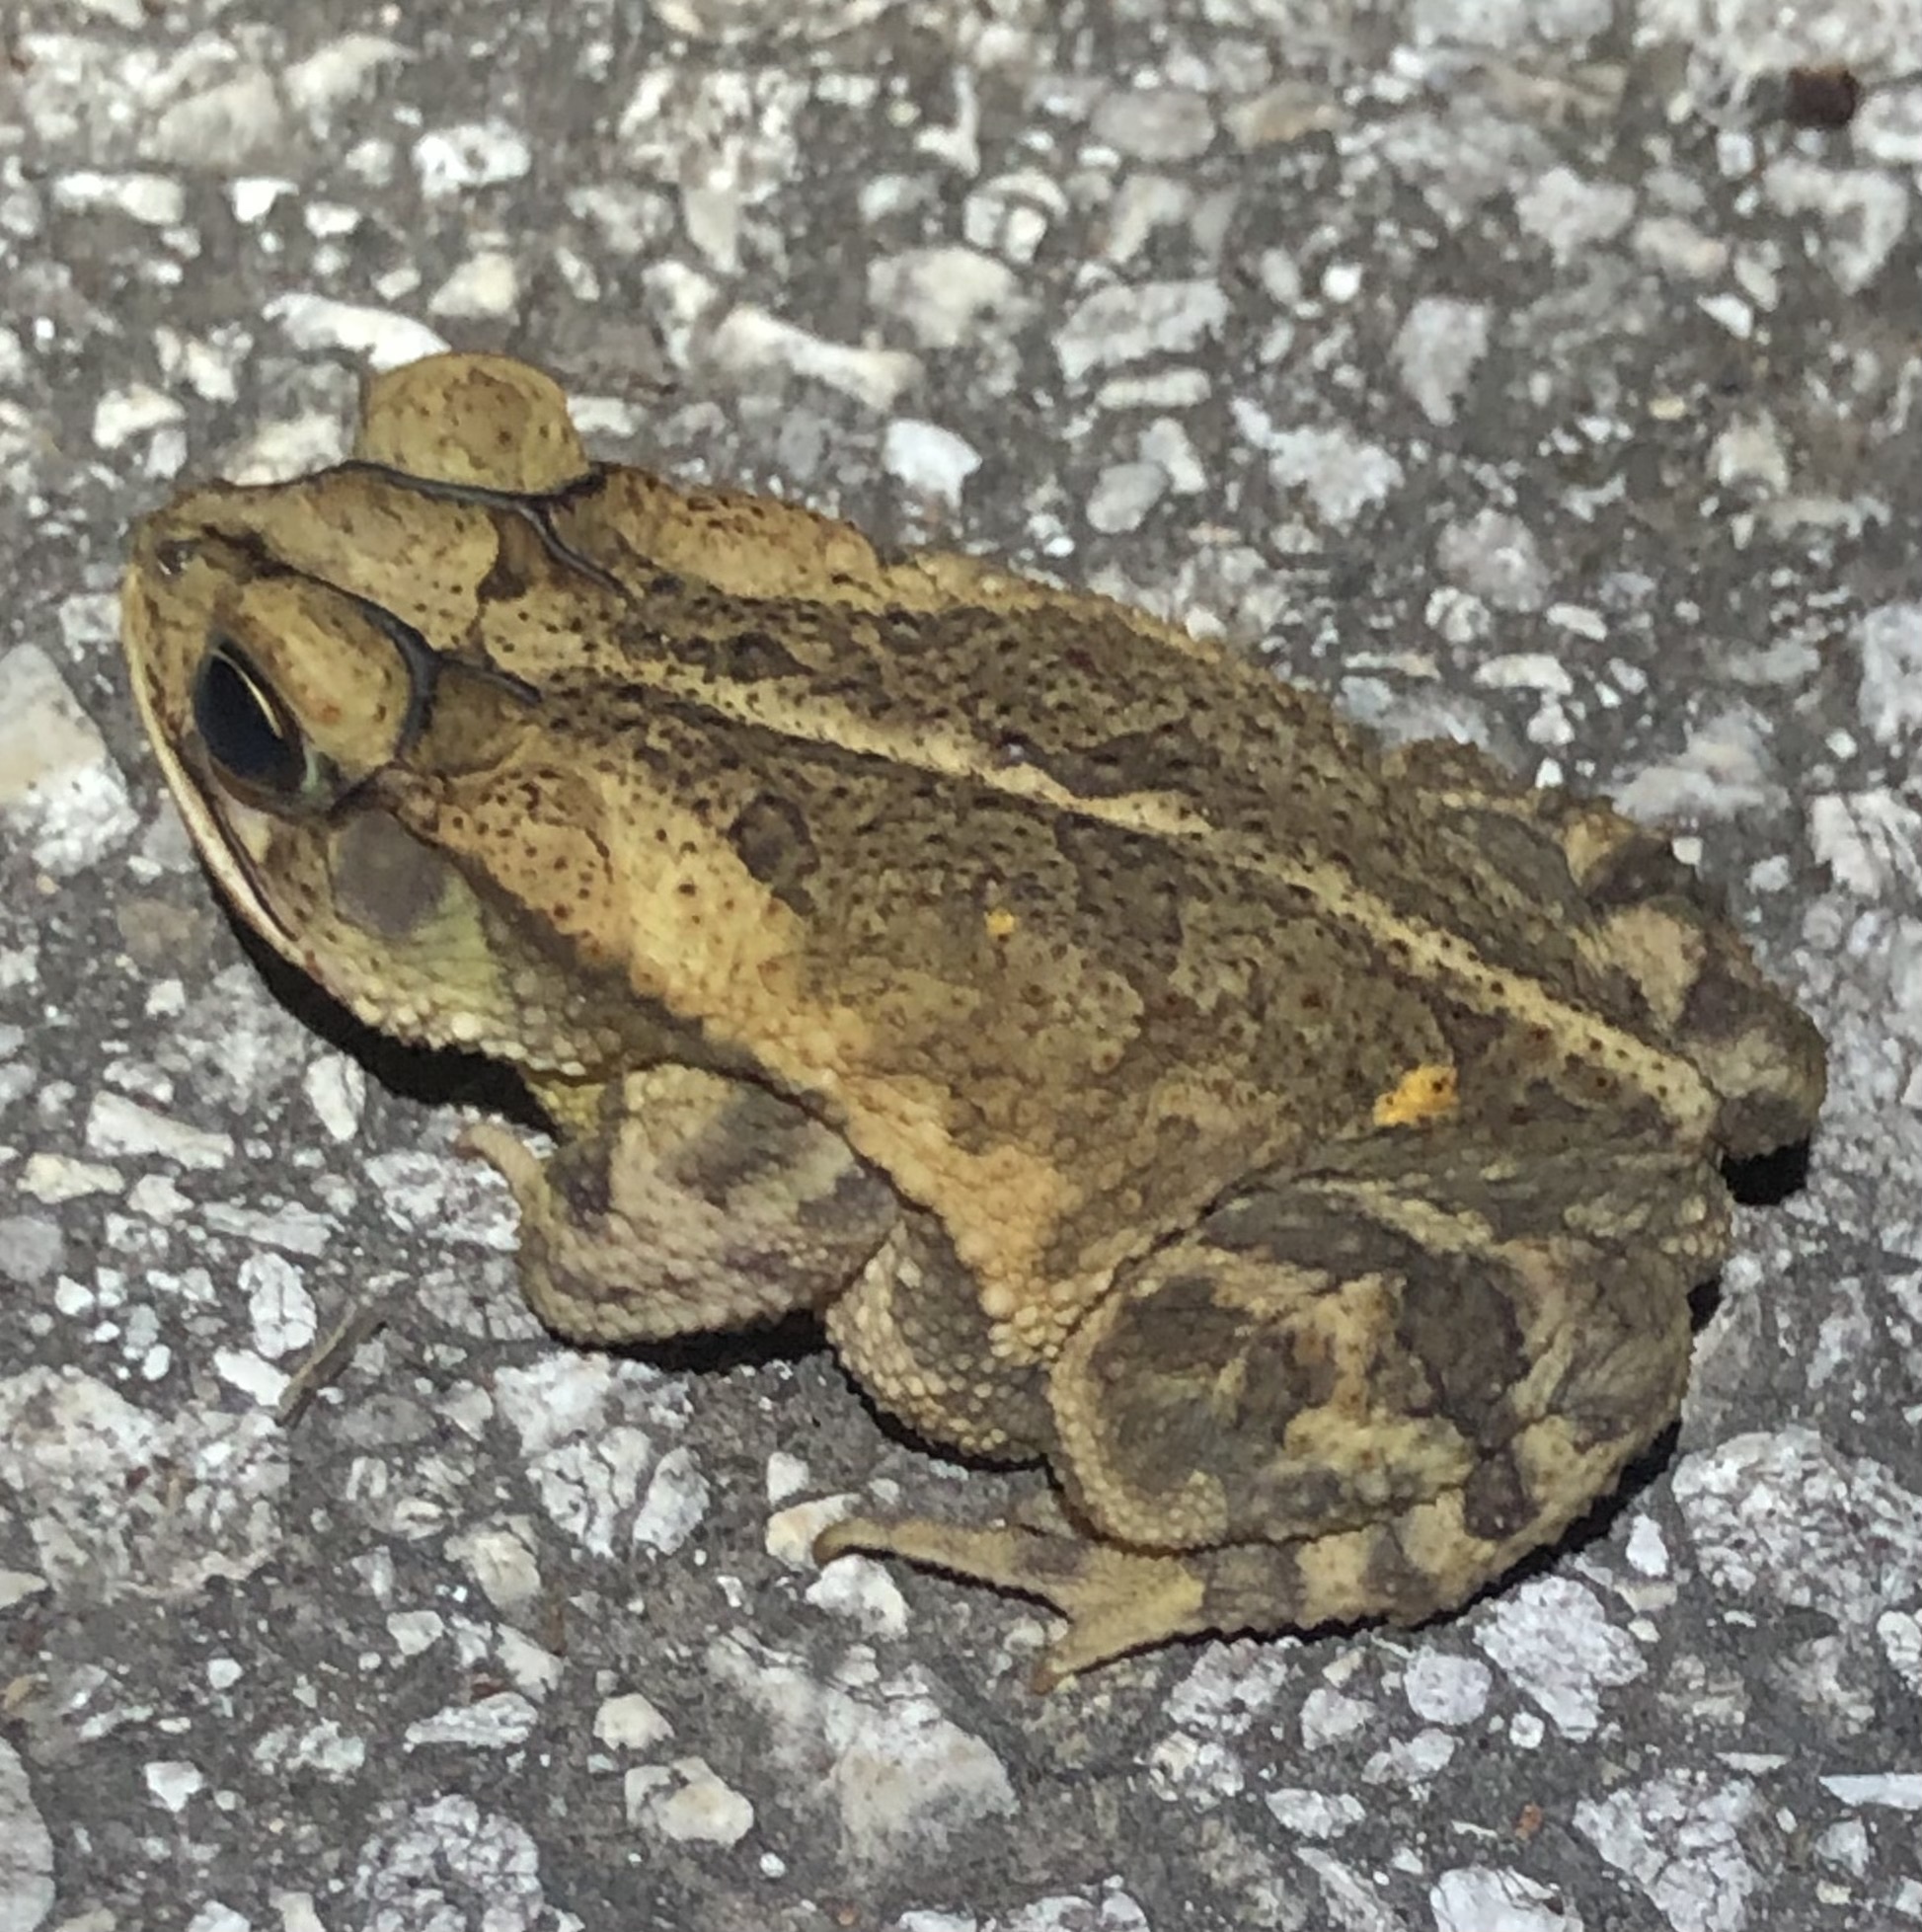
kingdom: Animalia
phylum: Chordata
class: Amphibia
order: Anura
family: Bufonidae
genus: Incilius
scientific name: Incilius nebulifer
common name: Gulf coast toad
